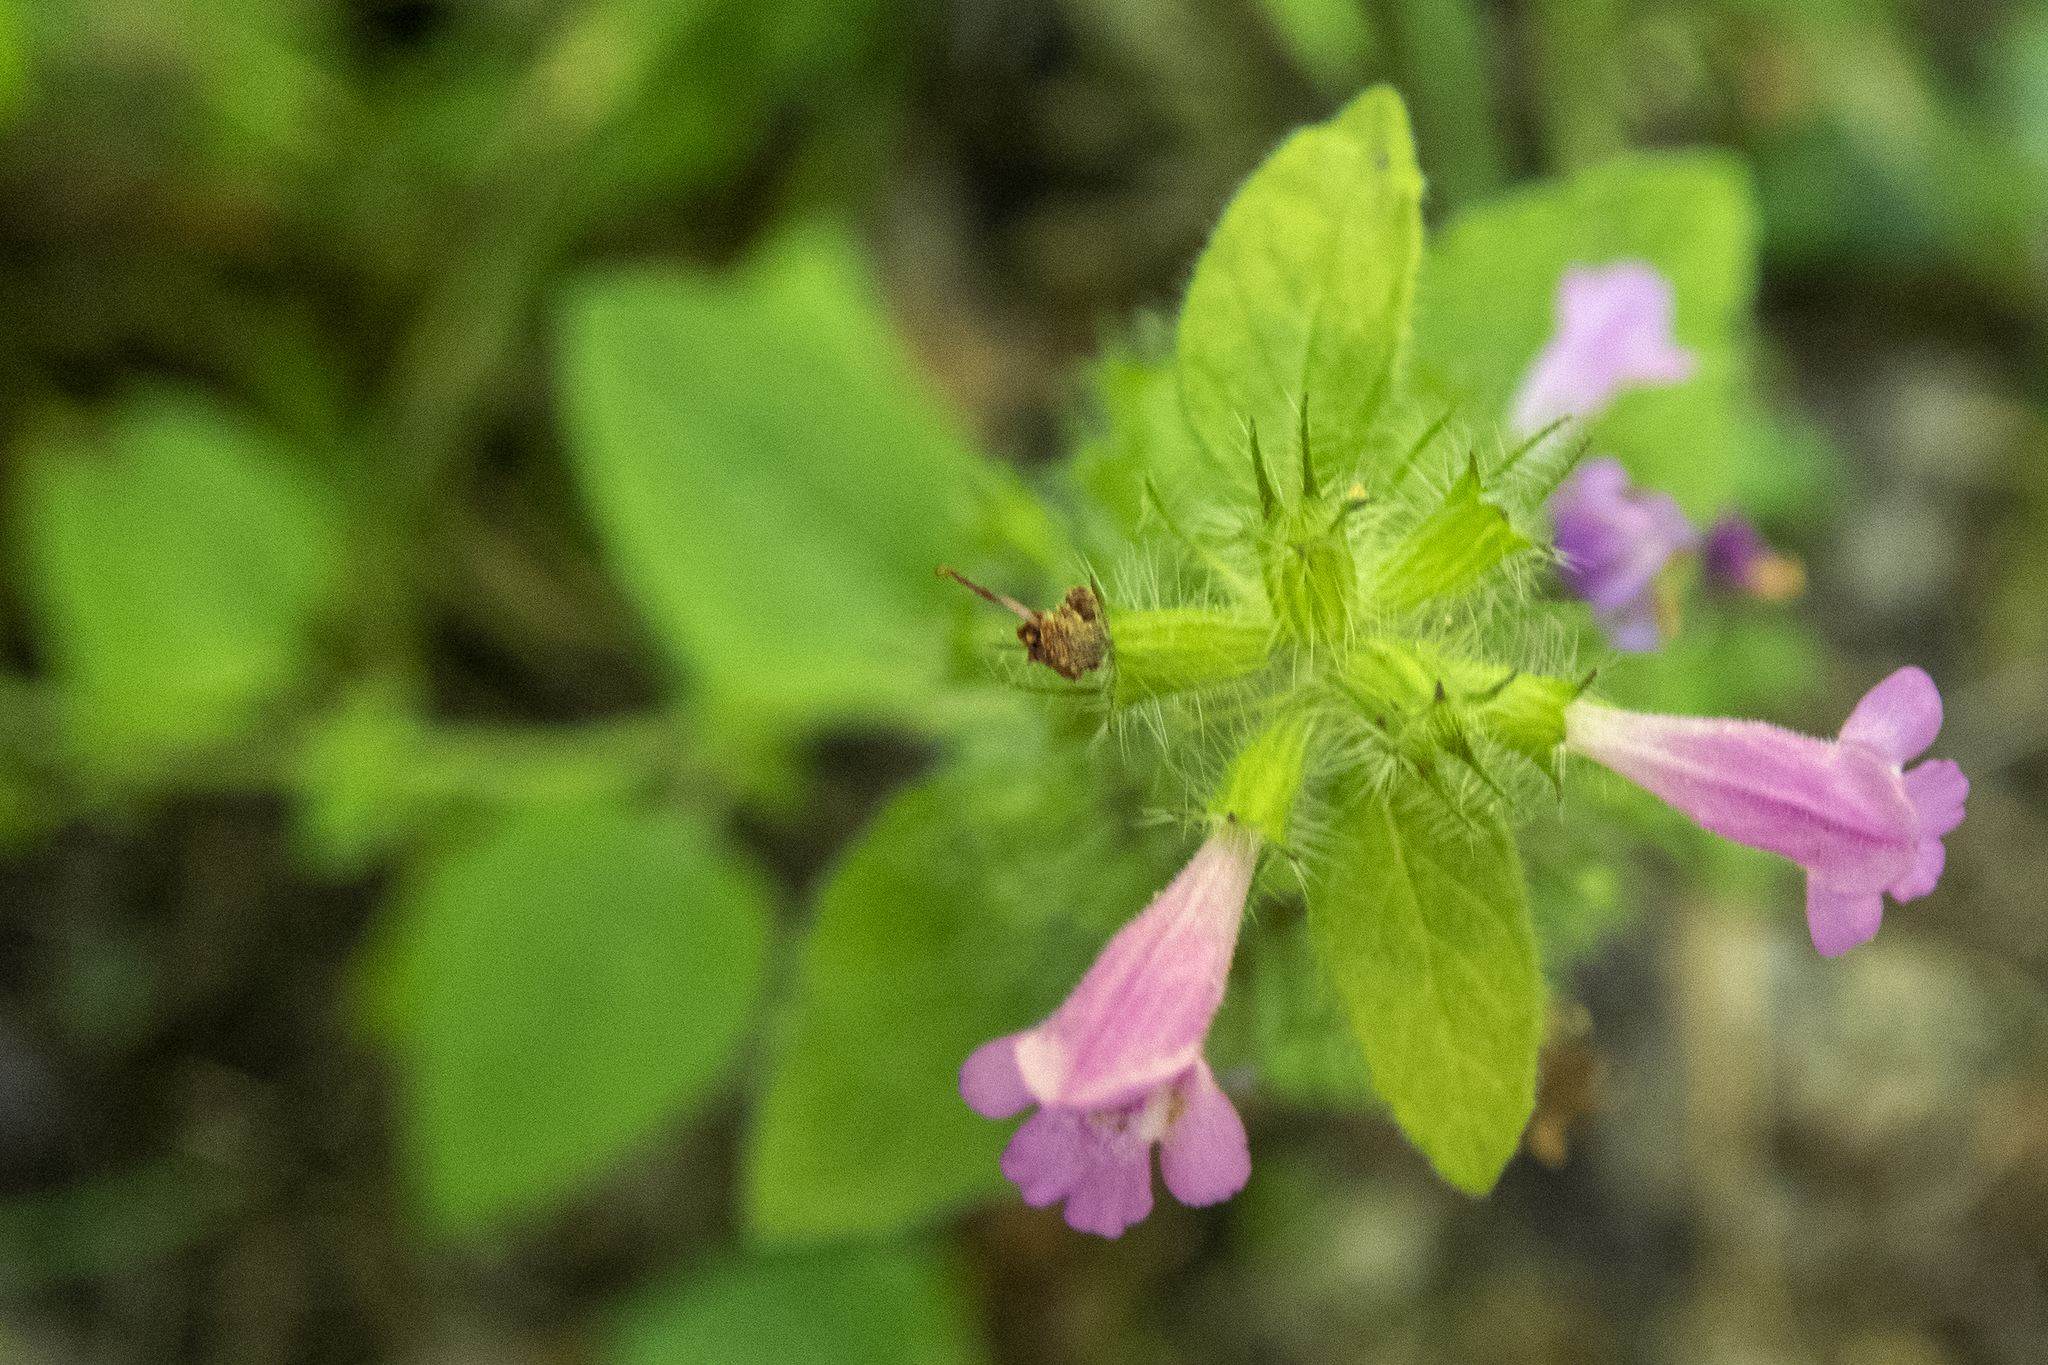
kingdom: Plantae
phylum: Tracheophyta
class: Magnoliopsida
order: Lamiales
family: Lamiaceae
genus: Clinopodium
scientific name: Clinopodium vulgare
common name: Wild basil
